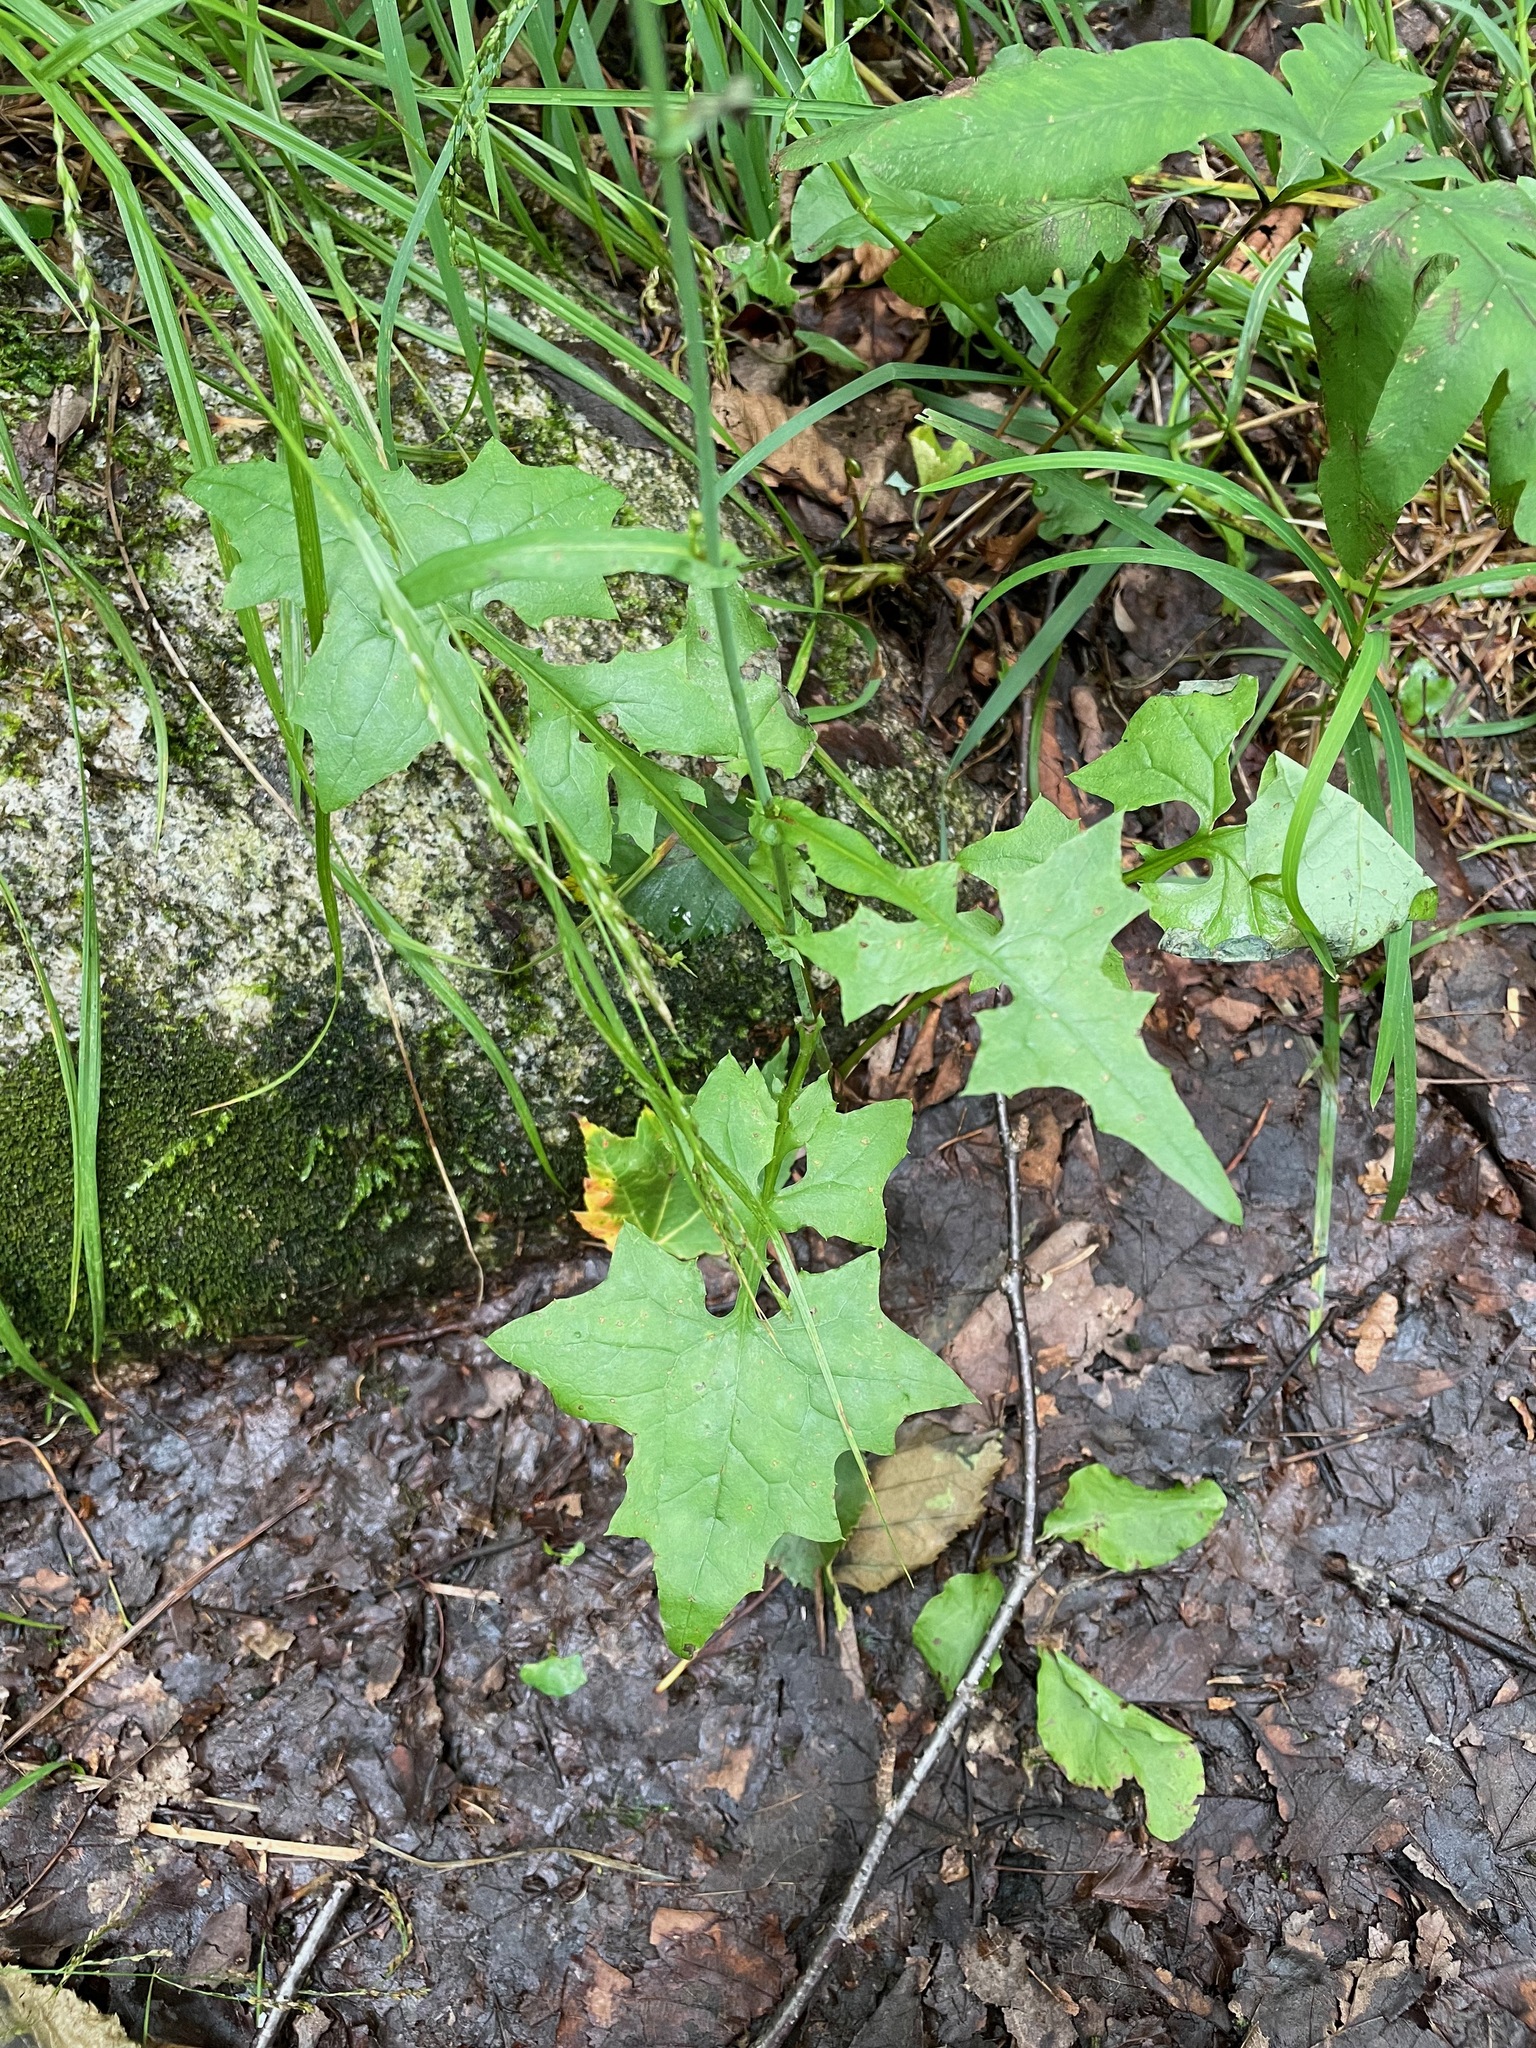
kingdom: Plantae
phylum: Tracheophyta
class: Magnoliopsida
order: Asterales
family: Asteraceae
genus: Mycelis
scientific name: Mycelis muralis
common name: Wall lettuce
